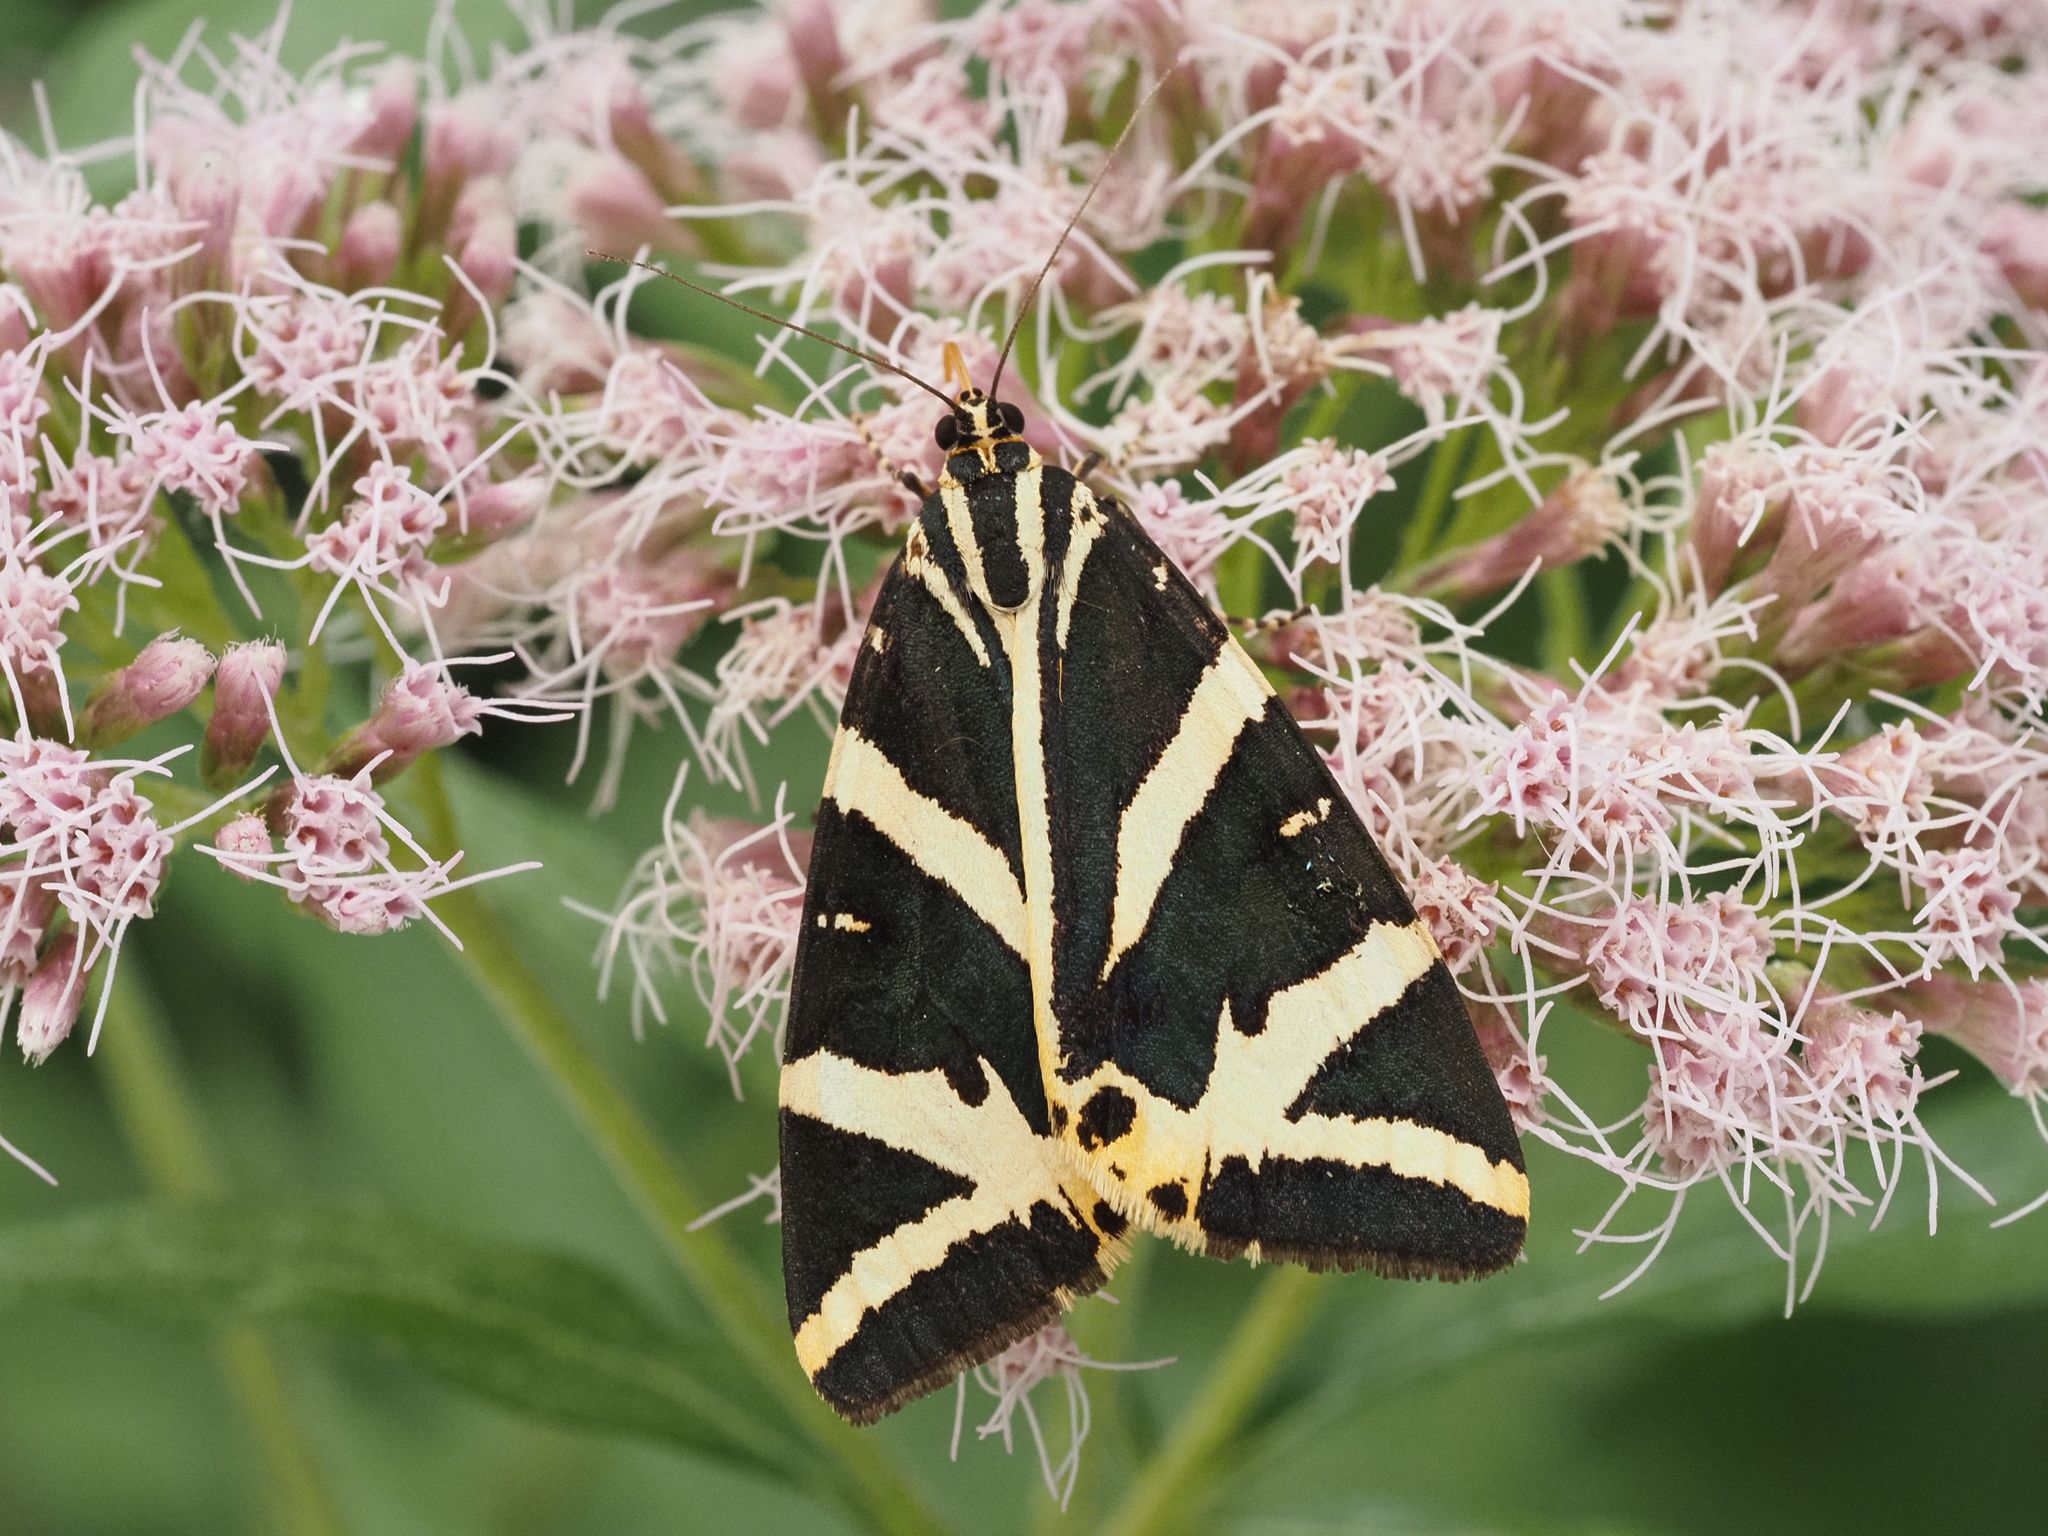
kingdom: Animalia
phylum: Arthropoda
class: Insecta
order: Lepidoptera
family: Erebidae
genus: Euplagia
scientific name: Euplagia quadripunctaria
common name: Jersey tiger
